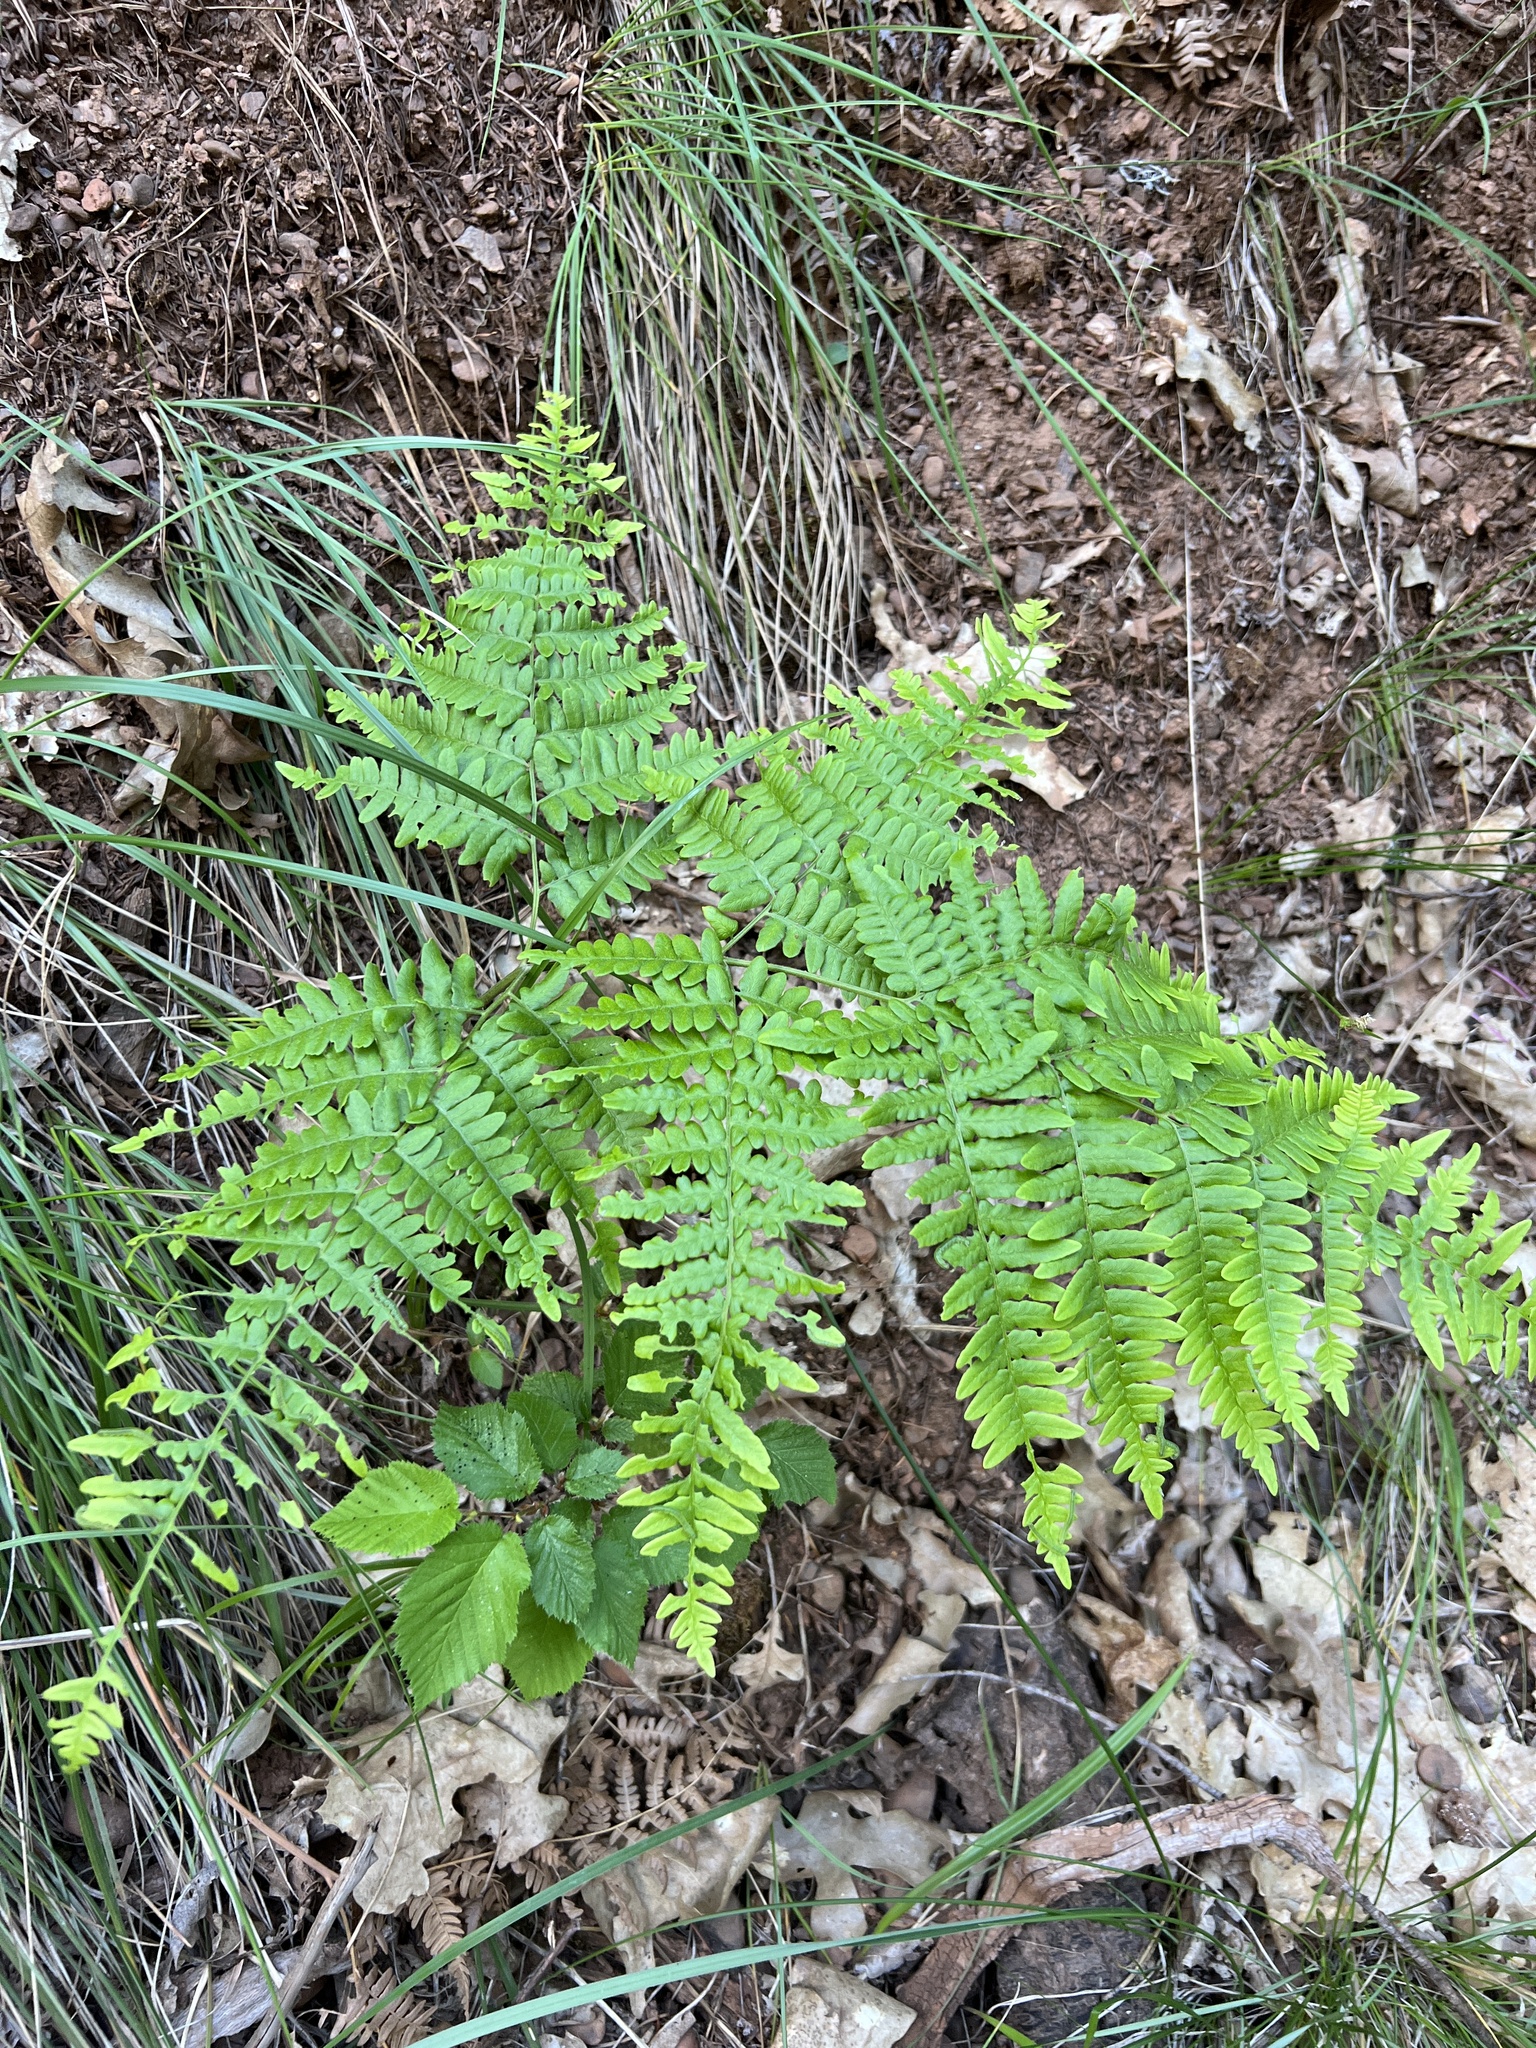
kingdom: Plantae
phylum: Tracheophyta
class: Polypodiopsida
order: Polypodiales
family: Dennstaedtiaceae
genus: Pteridium
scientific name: Pteridium aquilinum
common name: Bracken
